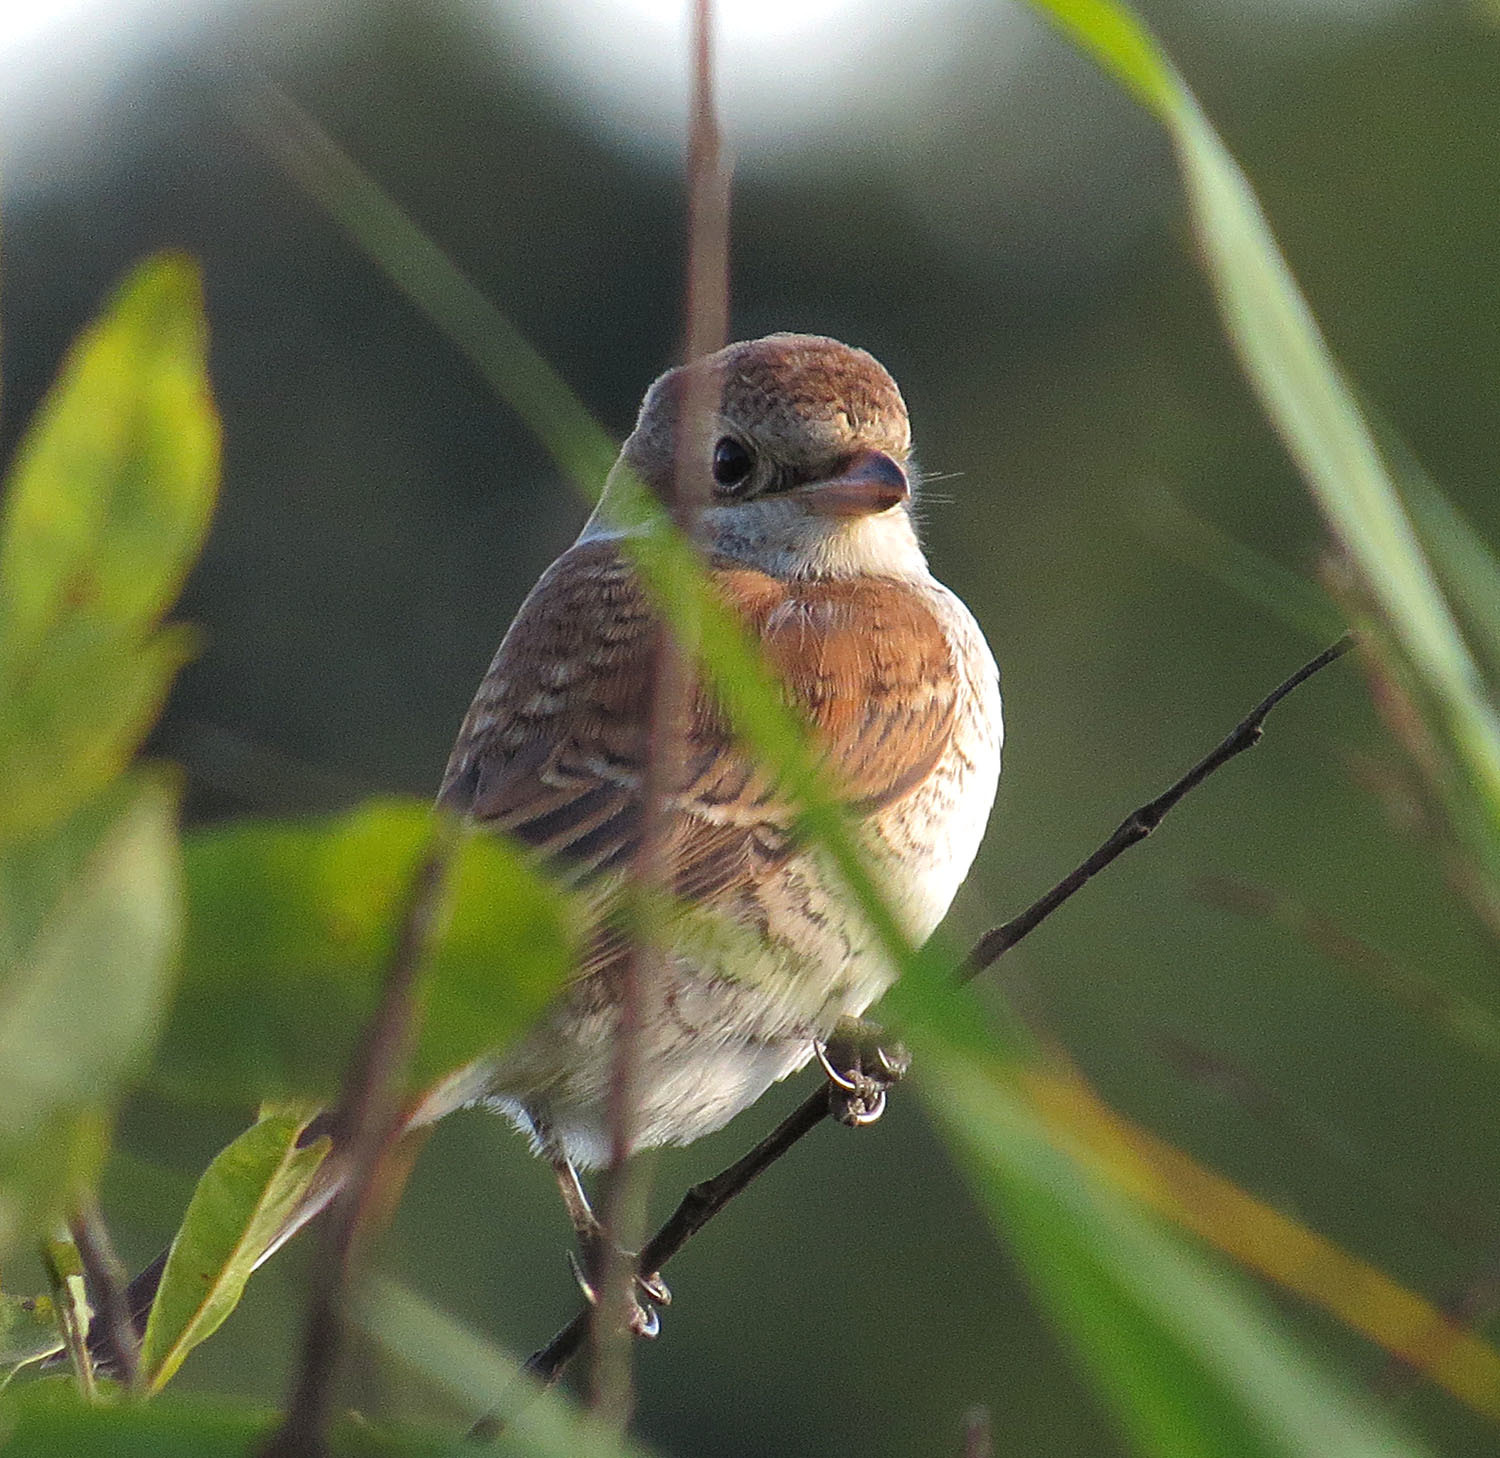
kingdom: Animalia
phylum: Chordata
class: Aves
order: Passeriformes
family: Laniidae
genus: Lanius
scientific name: Lanius collurio
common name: Red-backed shrike
